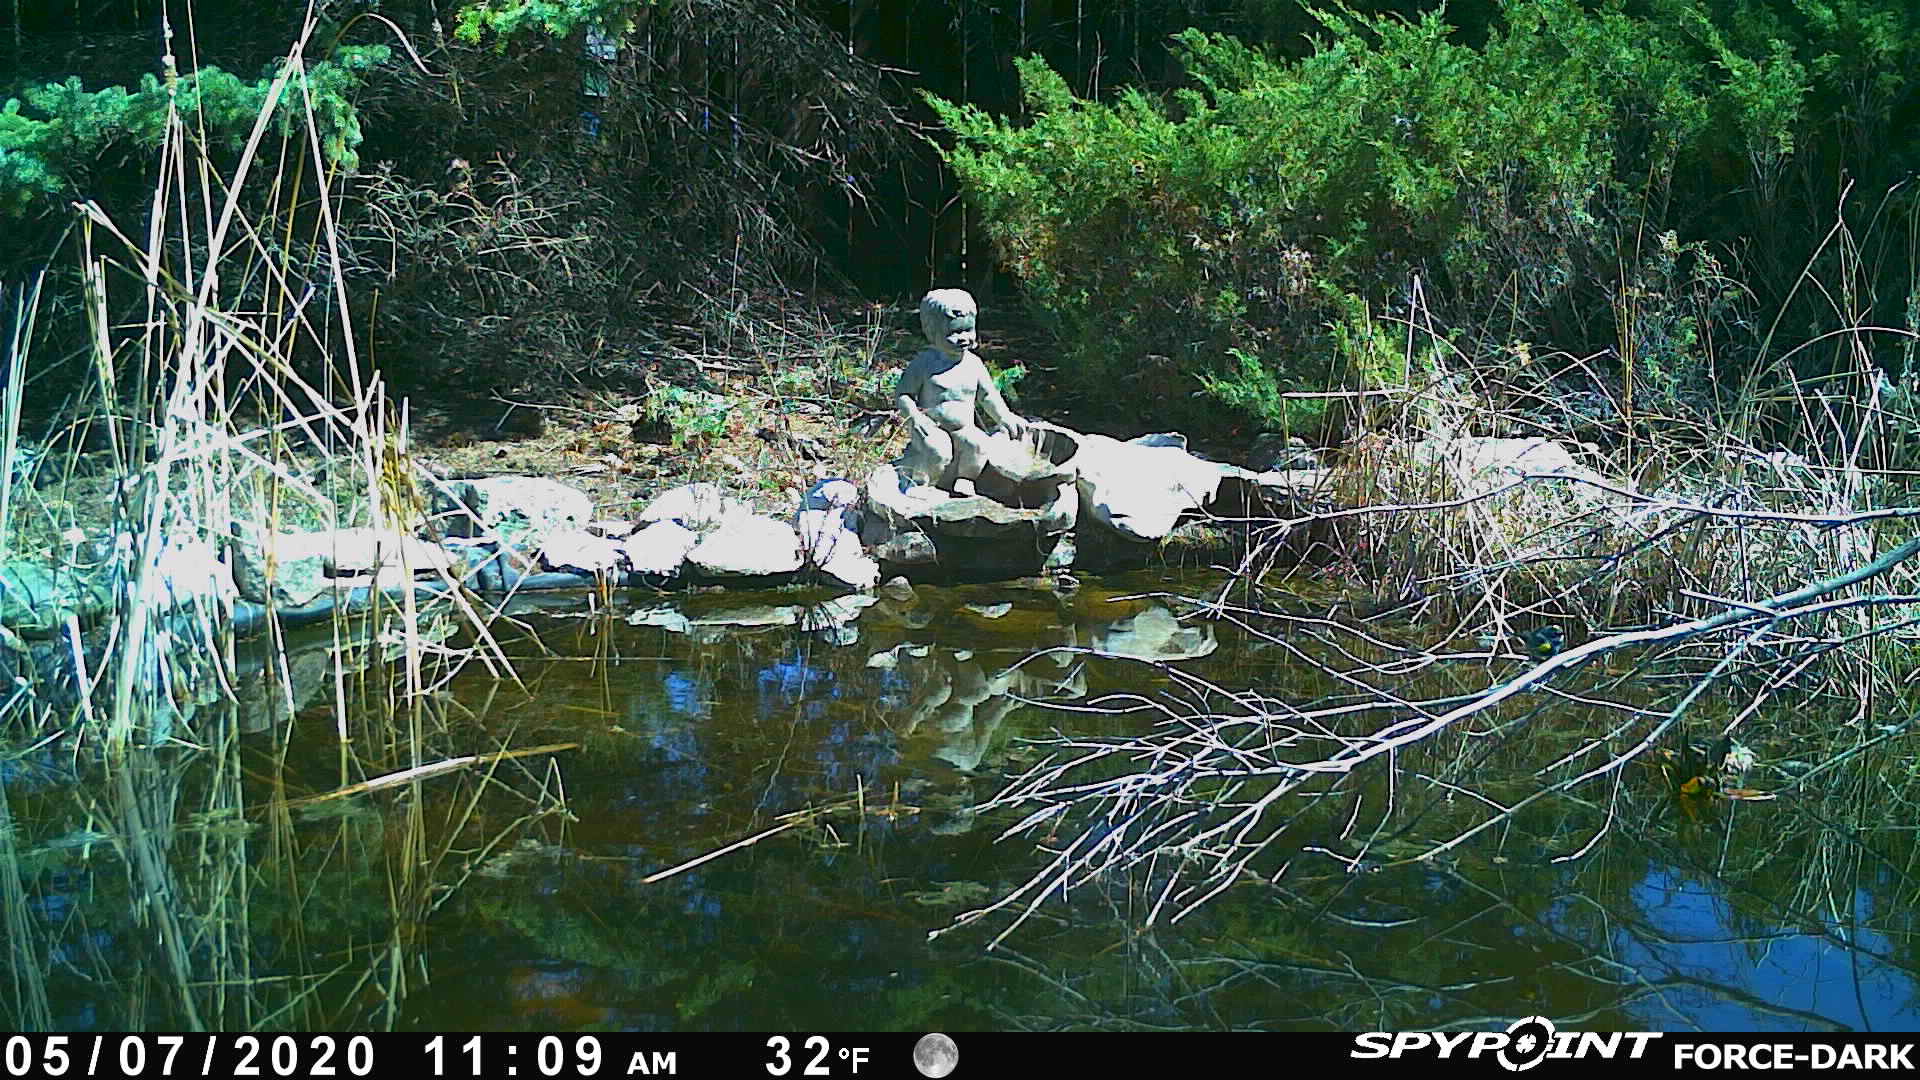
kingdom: Animalia
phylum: Chordata
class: Aves
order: Passeriformes
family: Parulidae
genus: Setophaga
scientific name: Setophaga coronata
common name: Myrtle warbler
